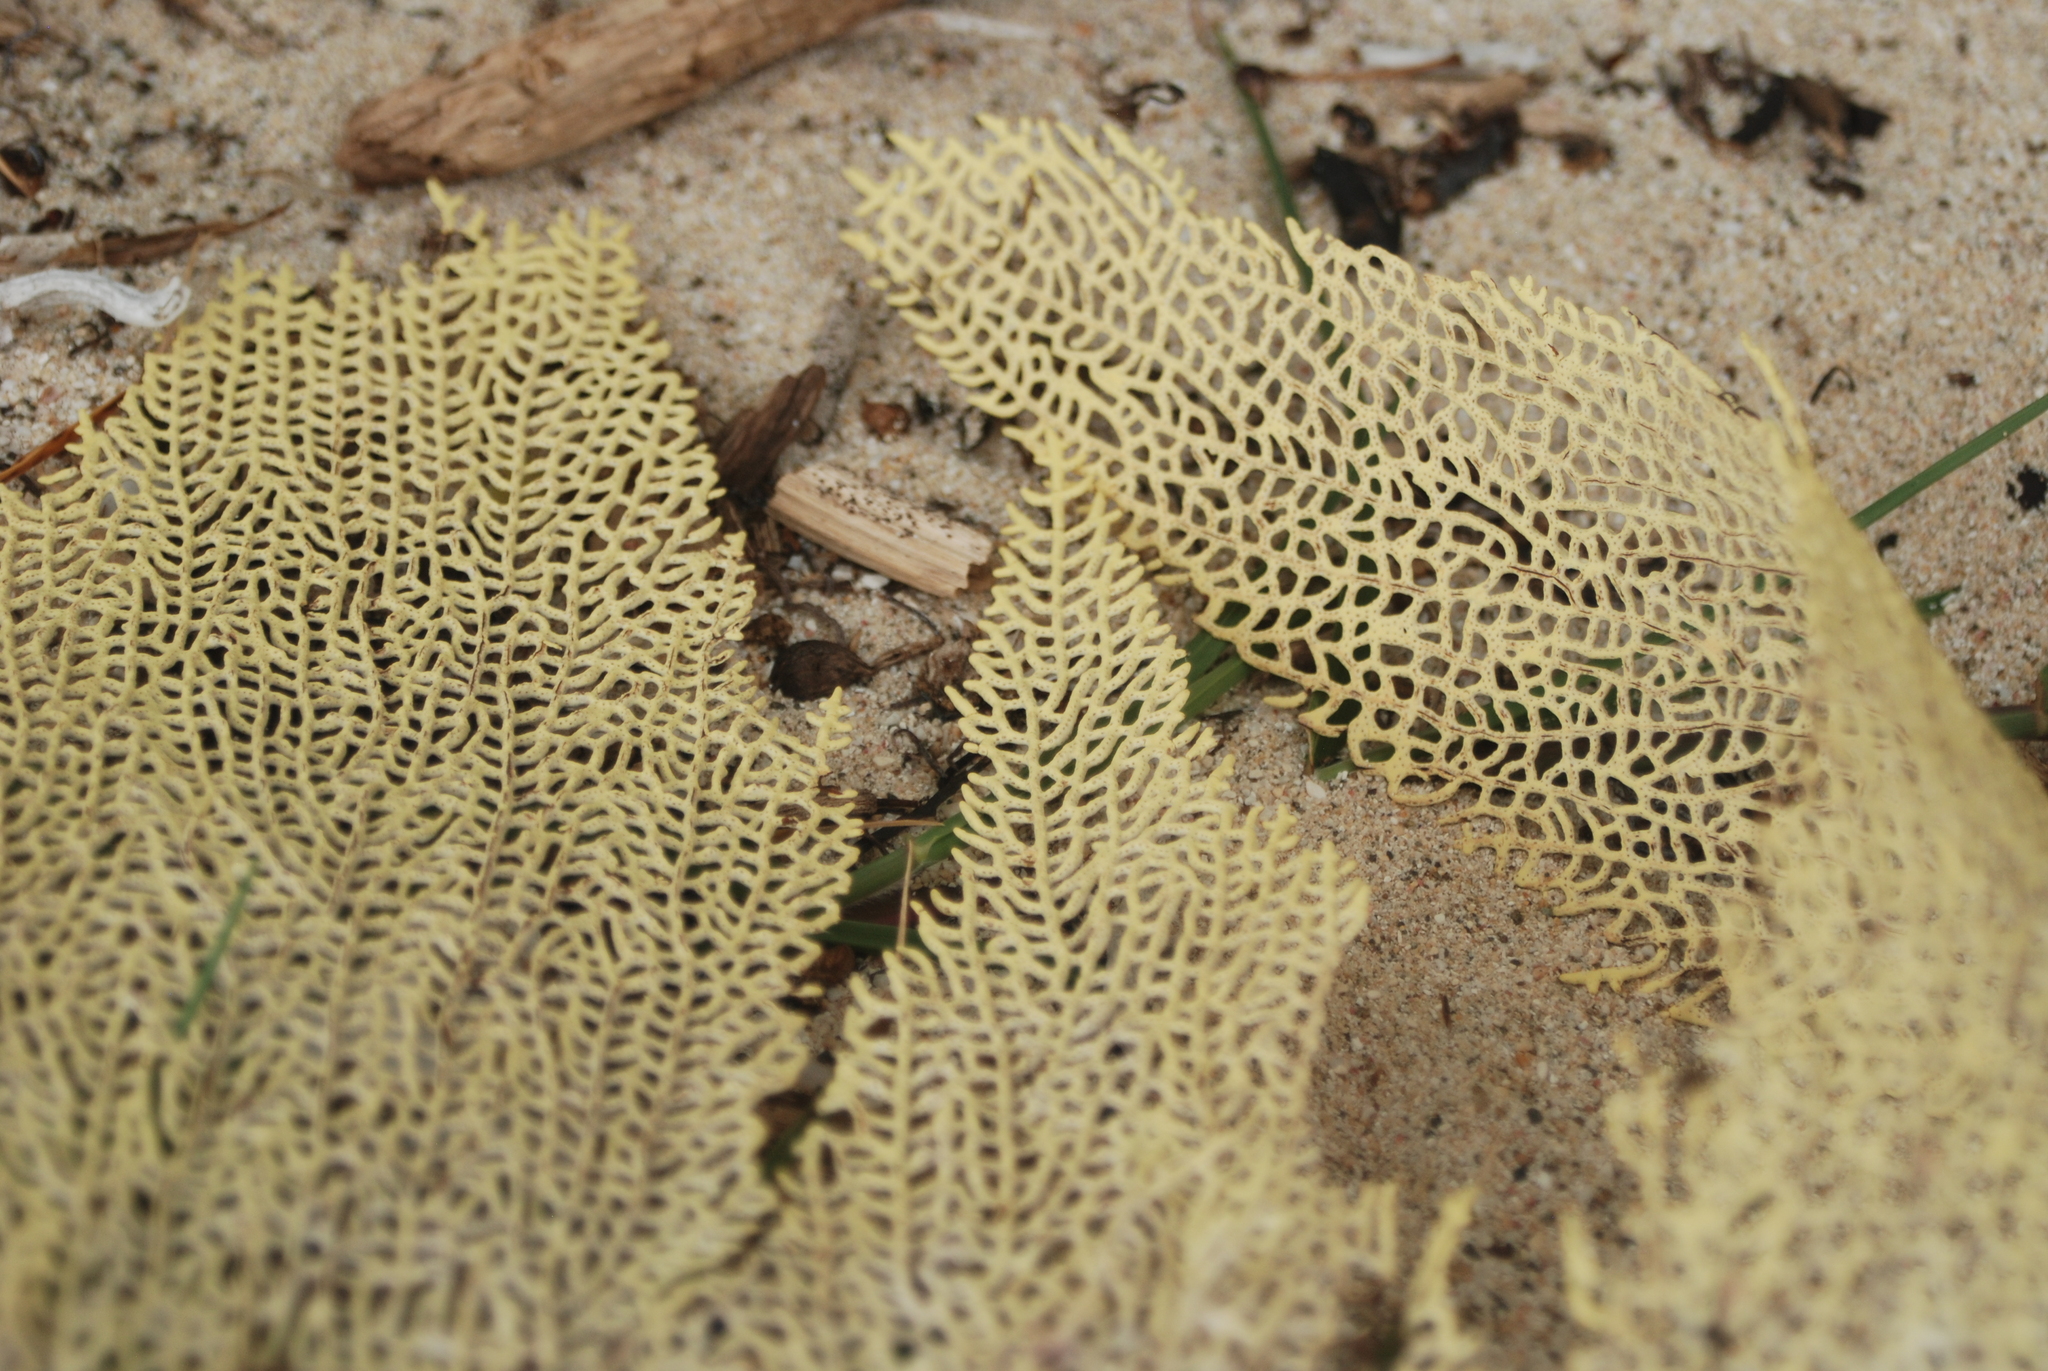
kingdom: Animalia
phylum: Cnidaria
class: Anthozoa
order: Malacalcyonacea
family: Gorgoniidae
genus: Gorgonia
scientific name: Gorgonia ventalina
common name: Common sea fan
